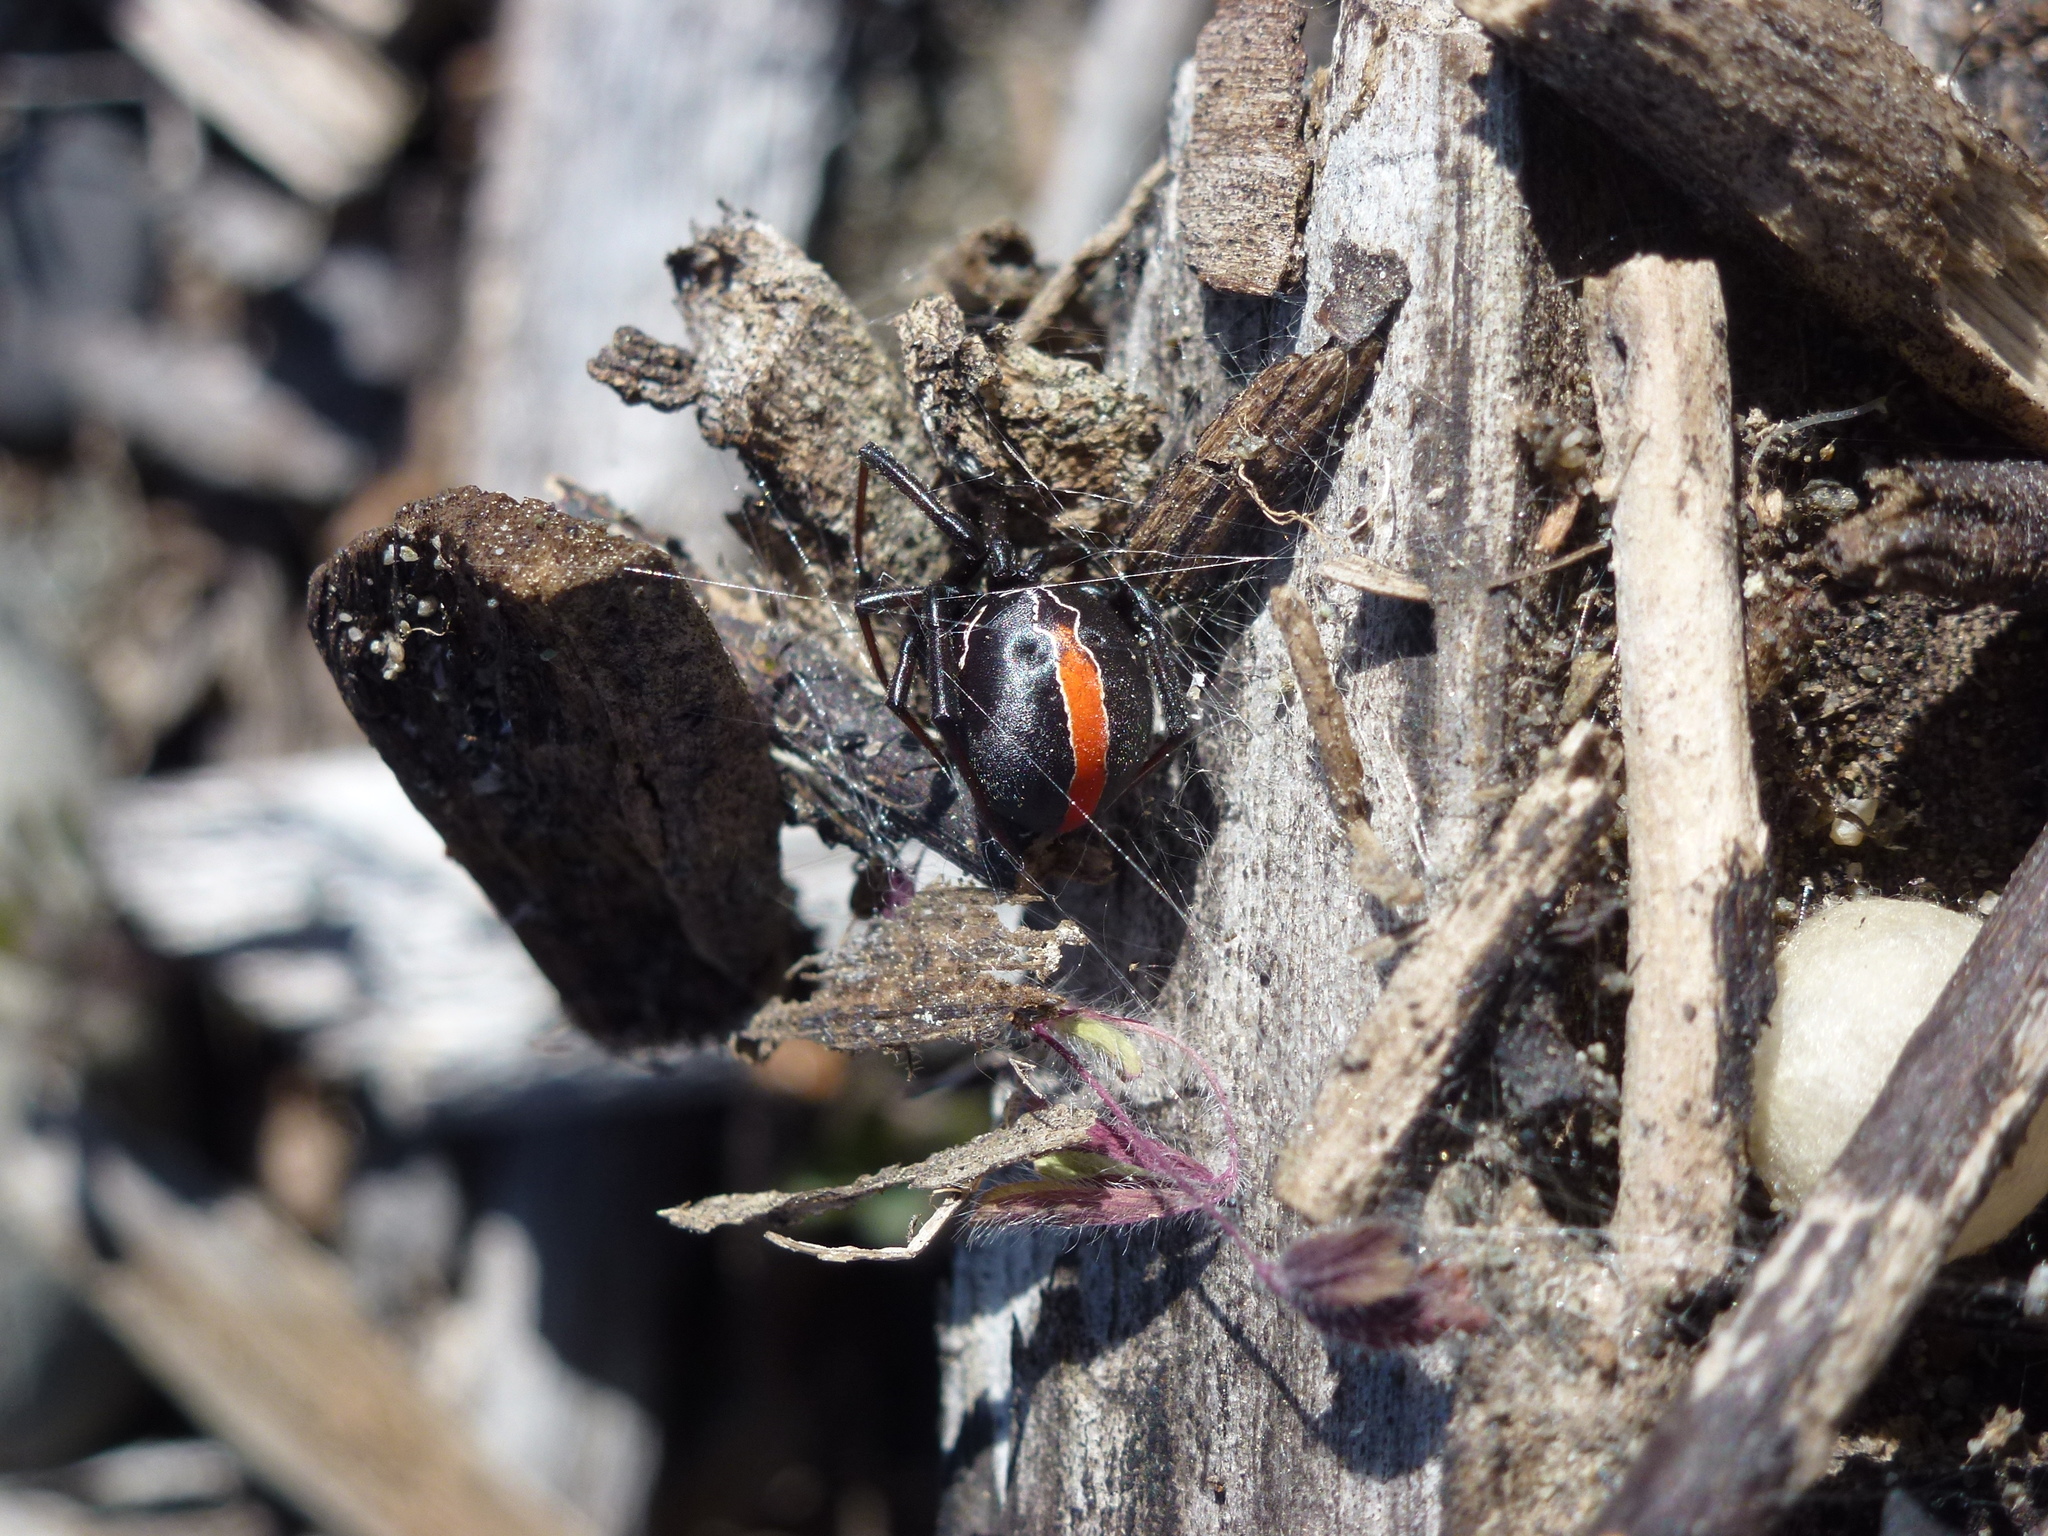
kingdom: Animalia
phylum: Arthropoda
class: Arachnida
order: Araneae
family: Theridiidae
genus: Latrodectus
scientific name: Latrodectus katipo
